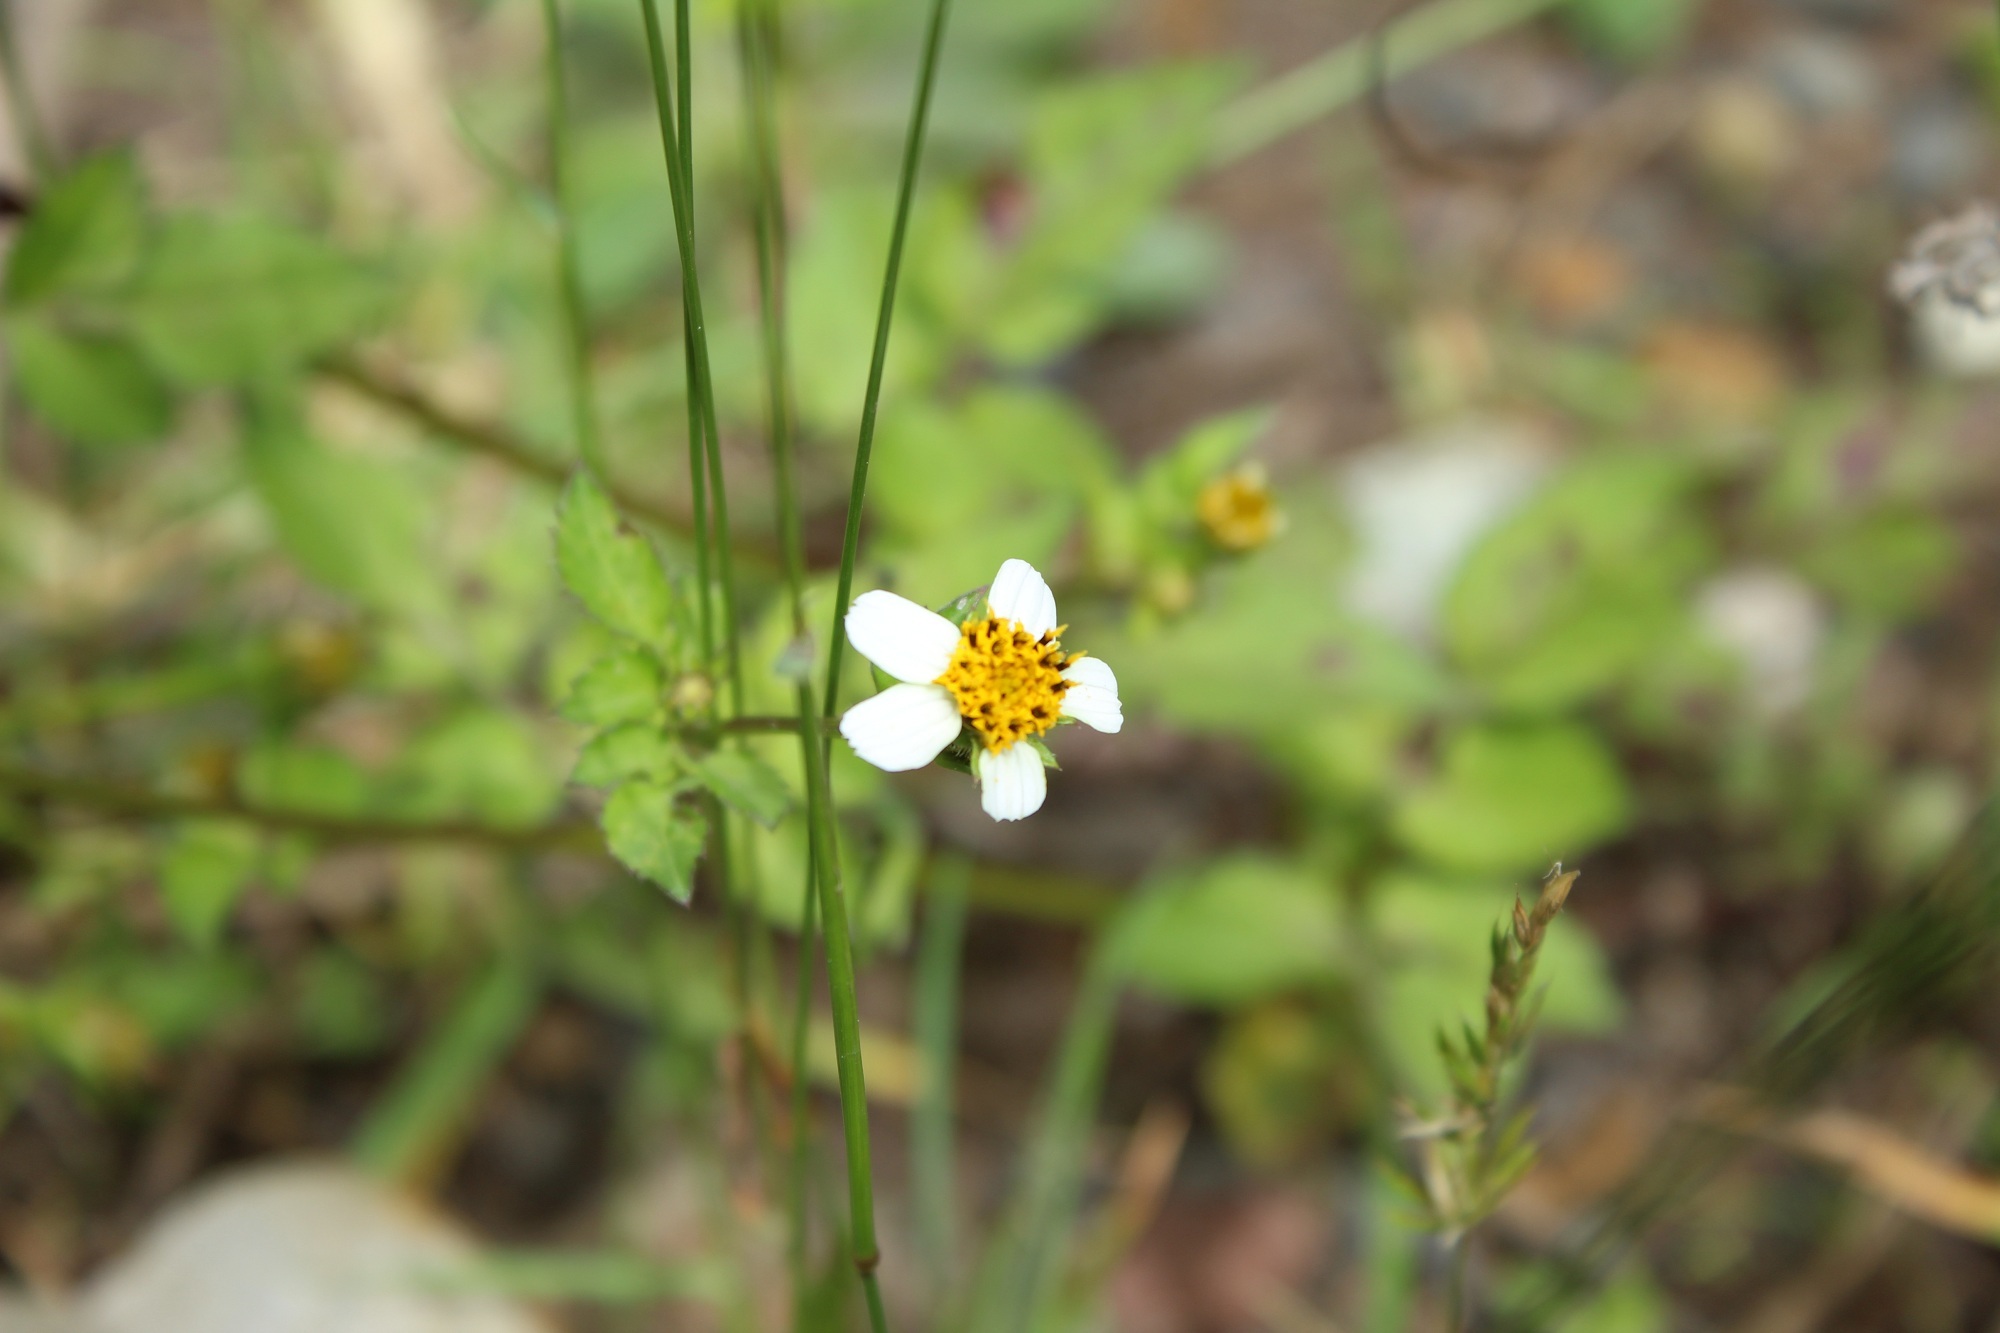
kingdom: Plantae
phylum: Tracheophyta
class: Magnoliopsida
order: Asterales
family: Asteraceae
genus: Bidens
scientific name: Bidens alba
